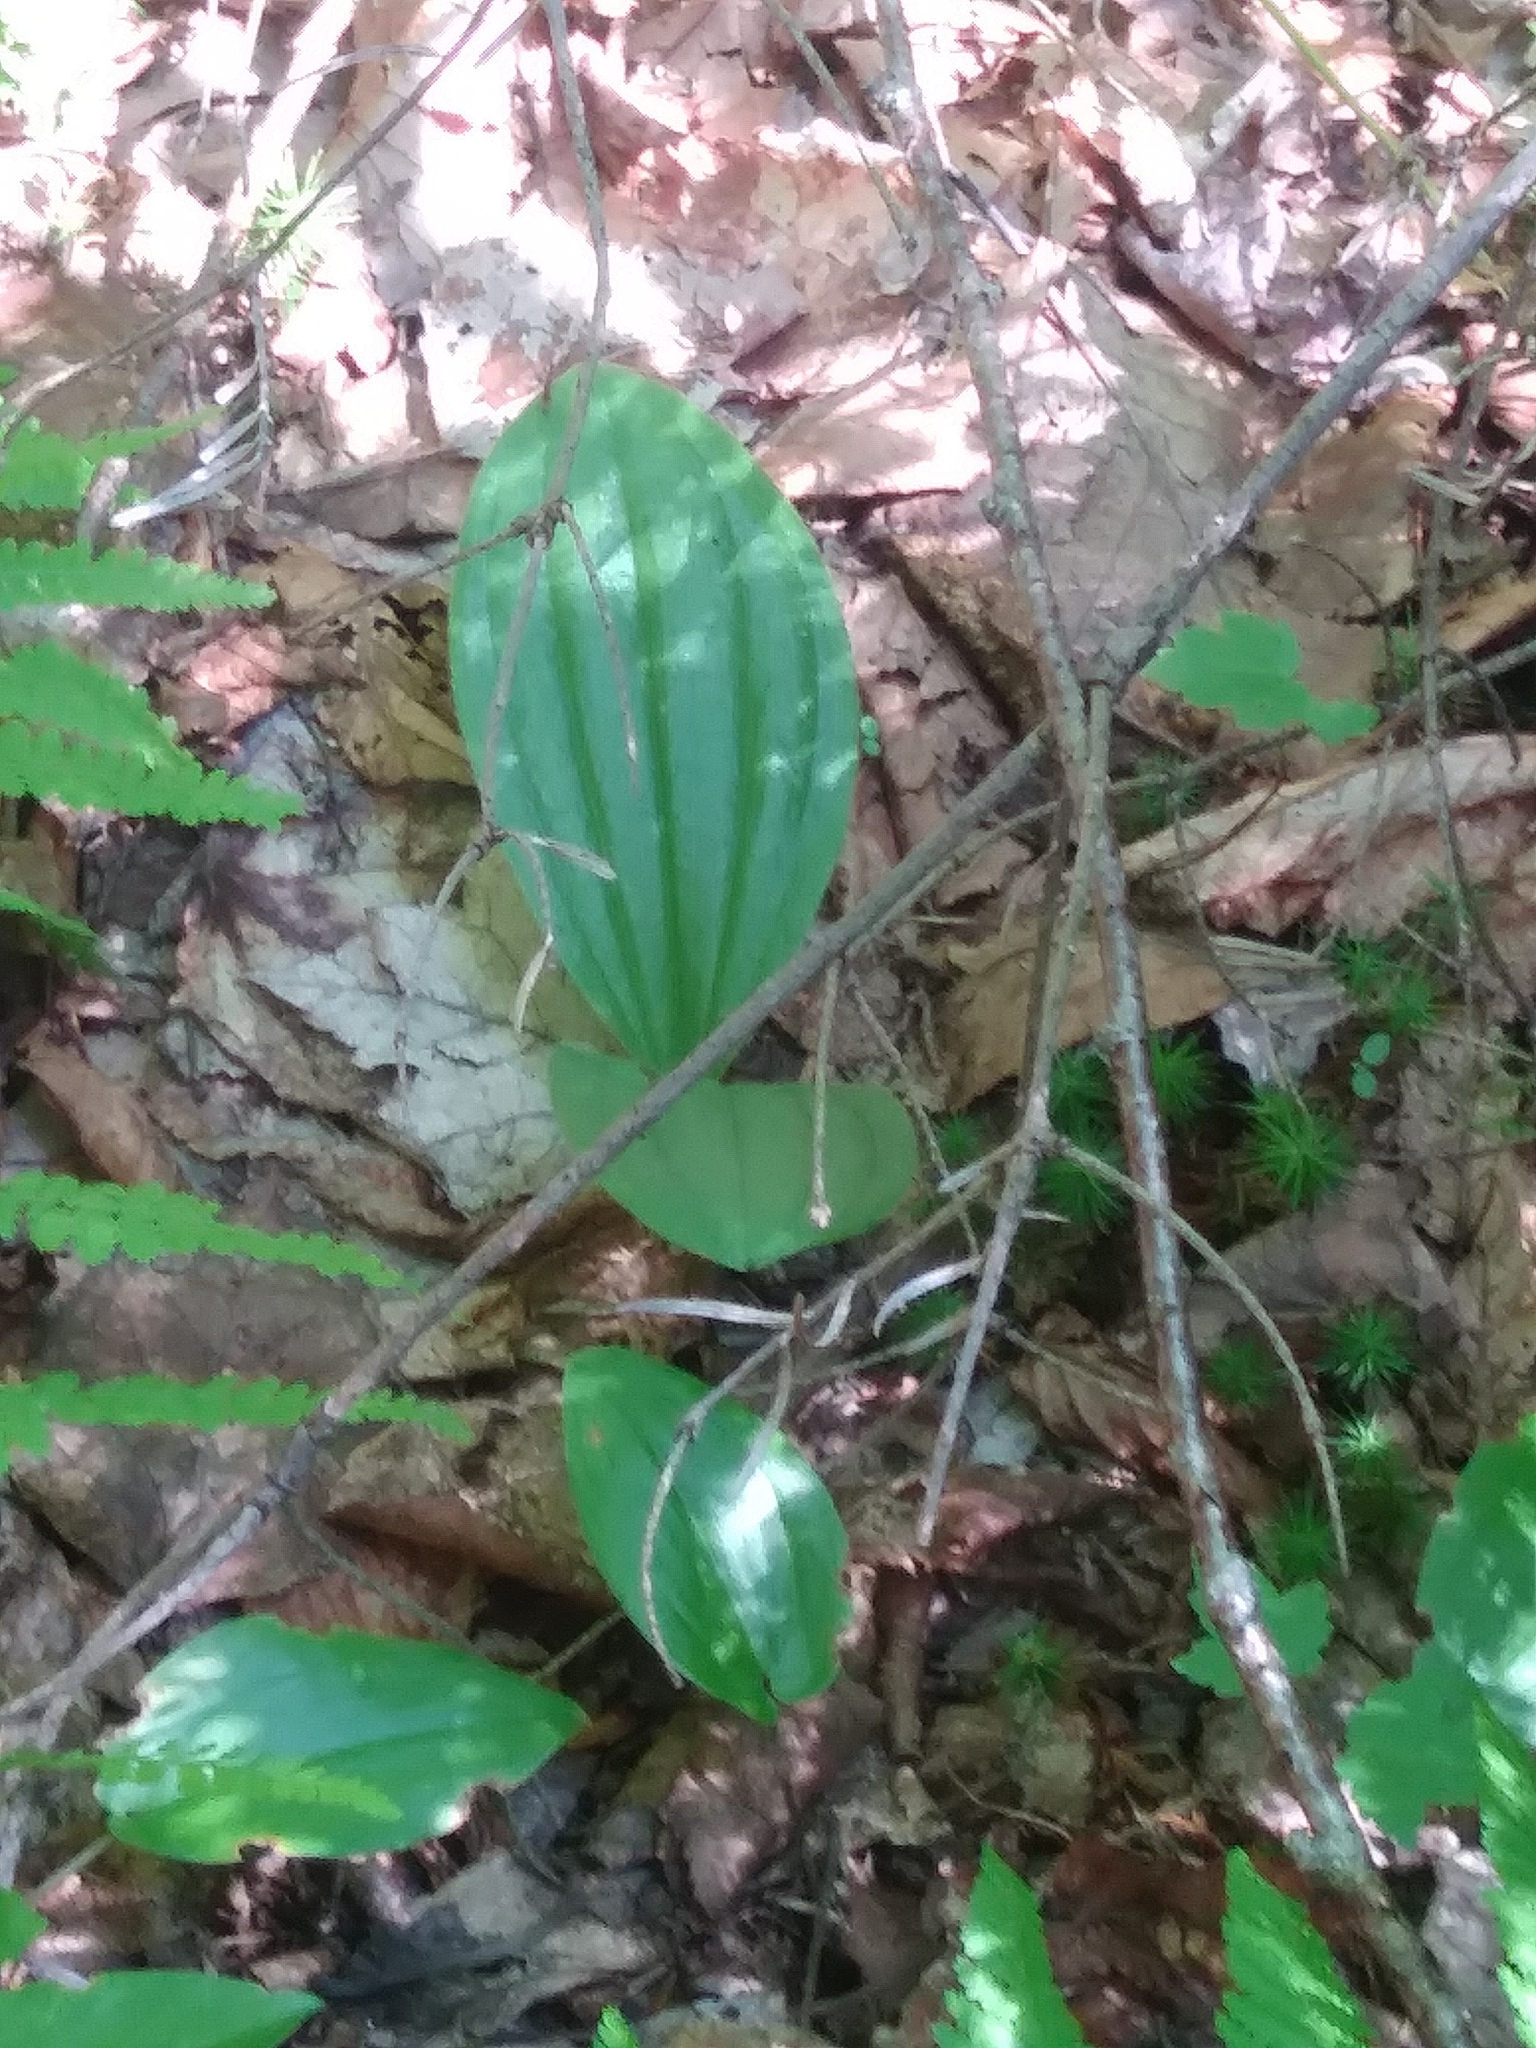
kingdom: Plantae
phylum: Tracheophyta
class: Liliopsida
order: Asparagales
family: Orchidaceae
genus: Cypripedium
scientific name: Cypripedium acaule
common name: Pink lady's-slipper
